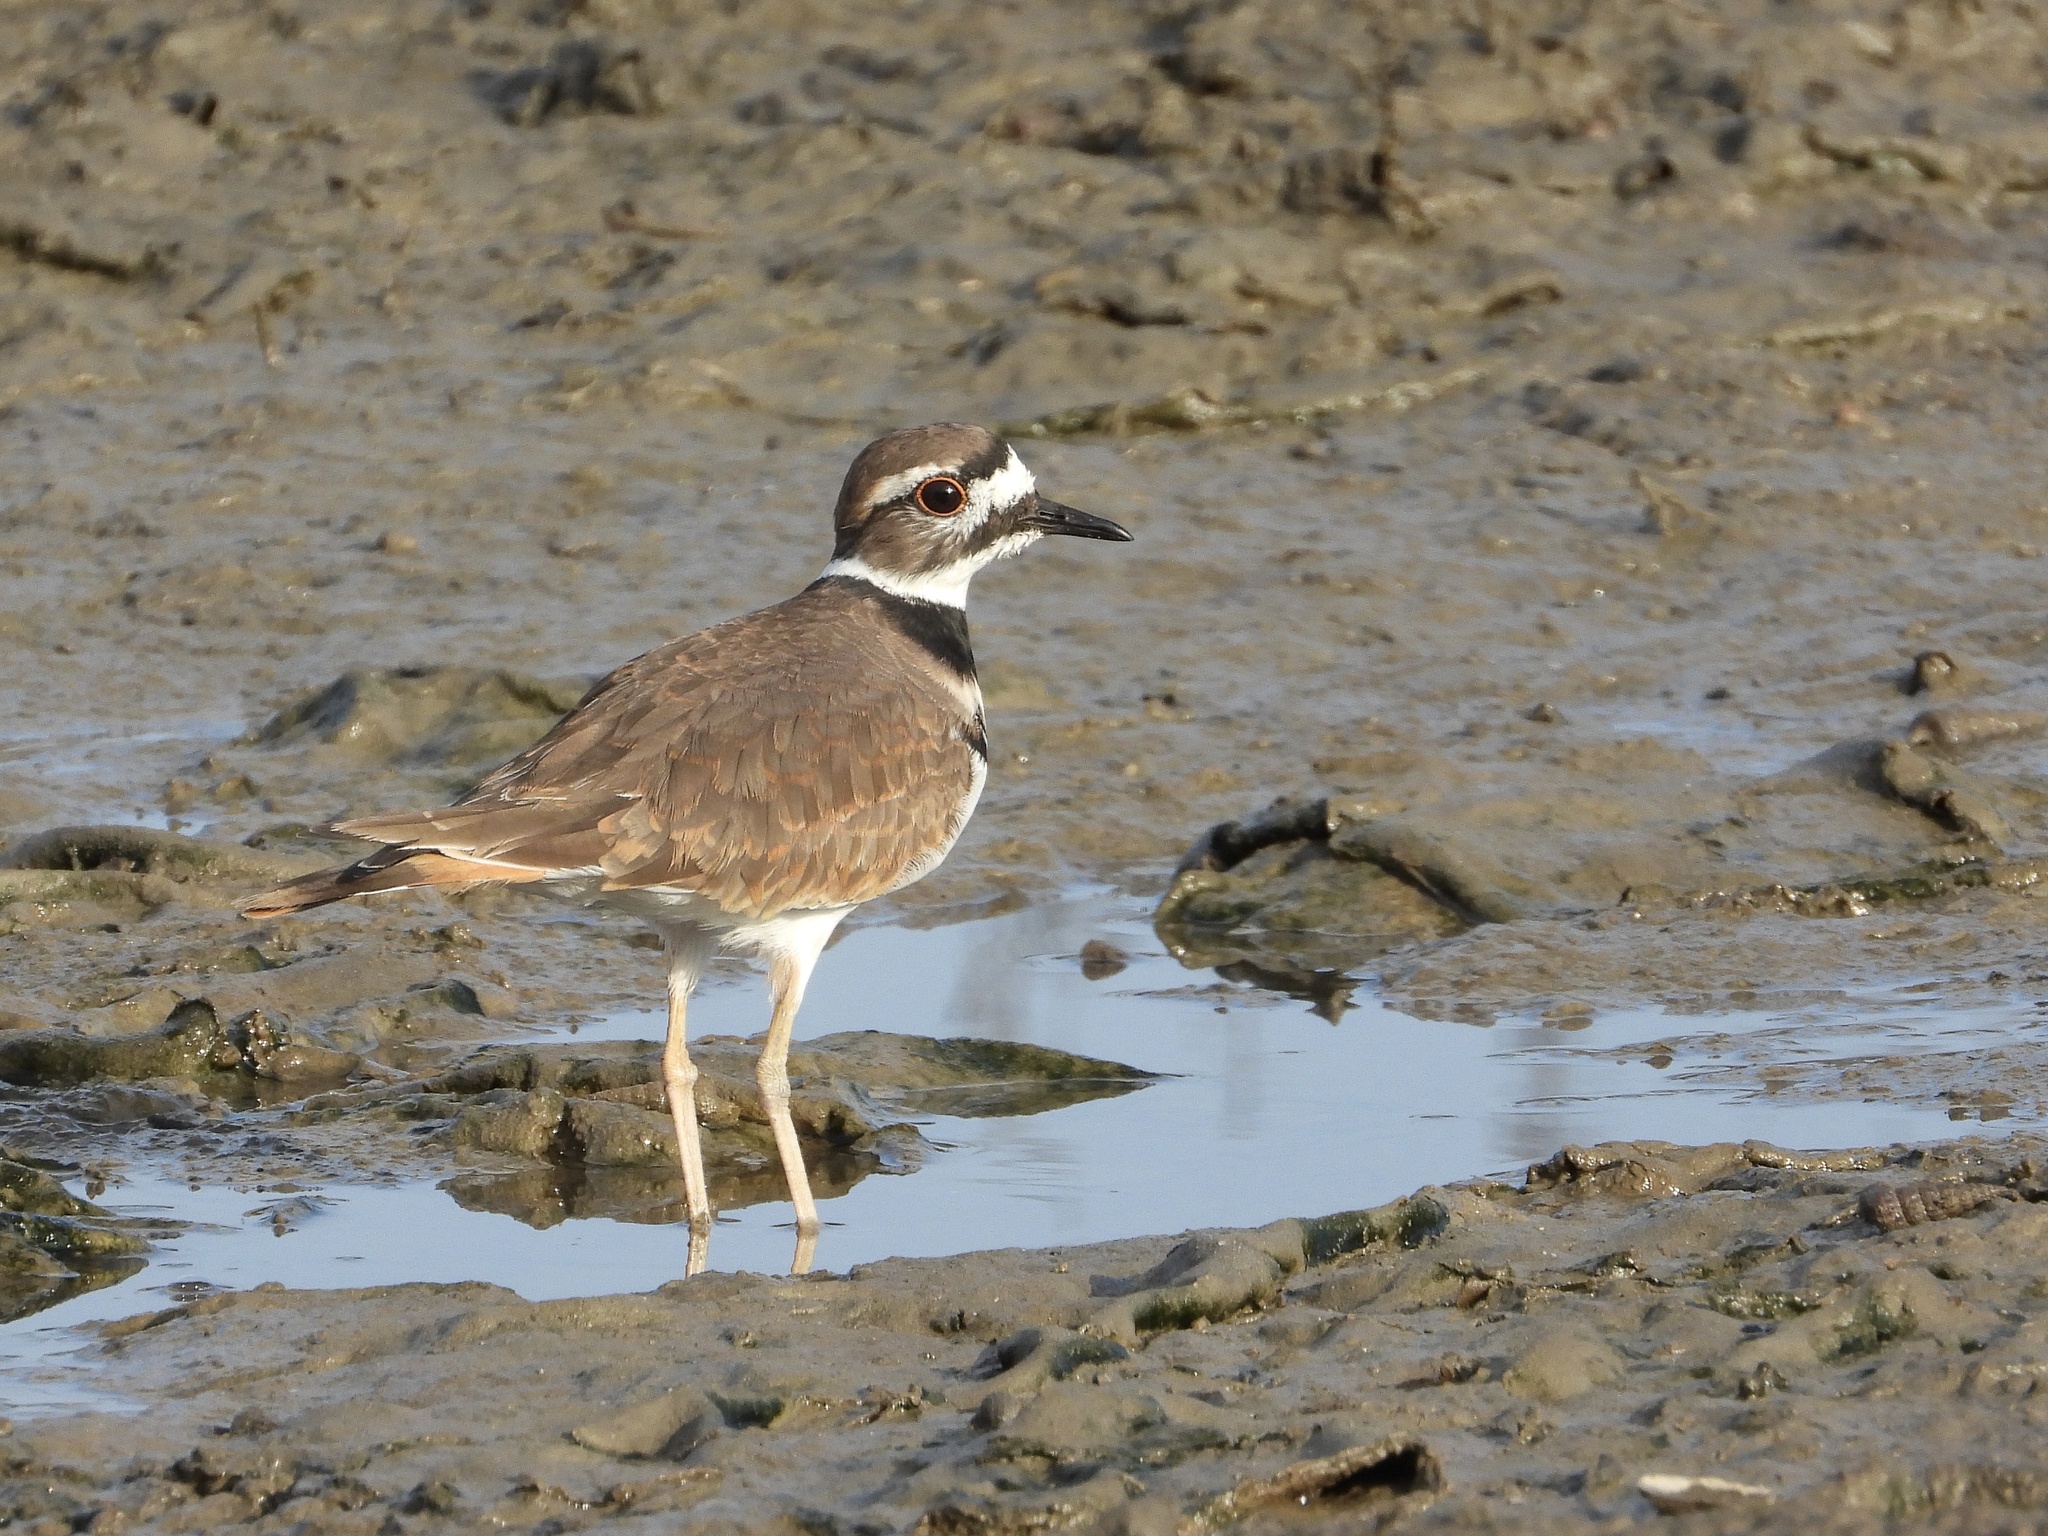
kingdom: Animalia
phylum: Chordata
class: Aves
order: Charadriiformes
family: Charadriidae
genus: Charadrius
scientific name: Charadrius vociferus
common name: Killdeer
